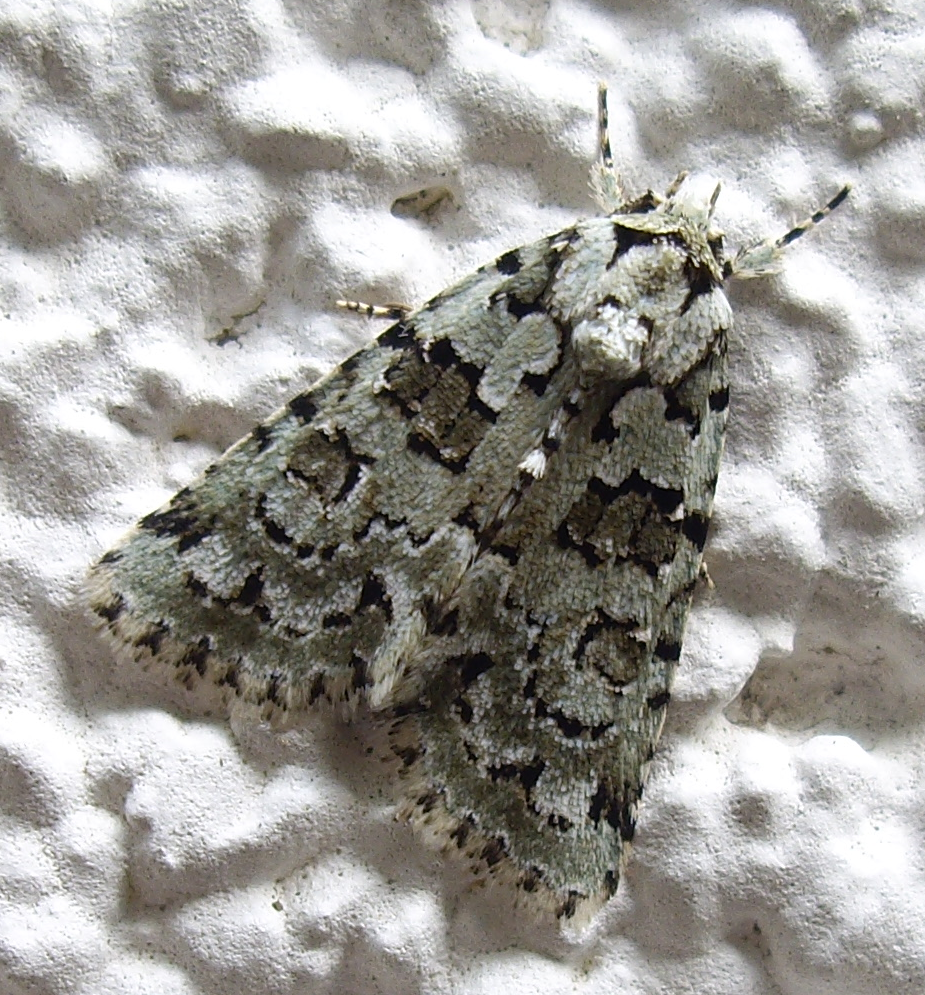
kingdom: Animalia
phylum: Arthropoda
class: Insecta
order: Lepidoptera
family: Noctuidae
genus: Nyctobrya
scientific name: Nyctobrya muralis
